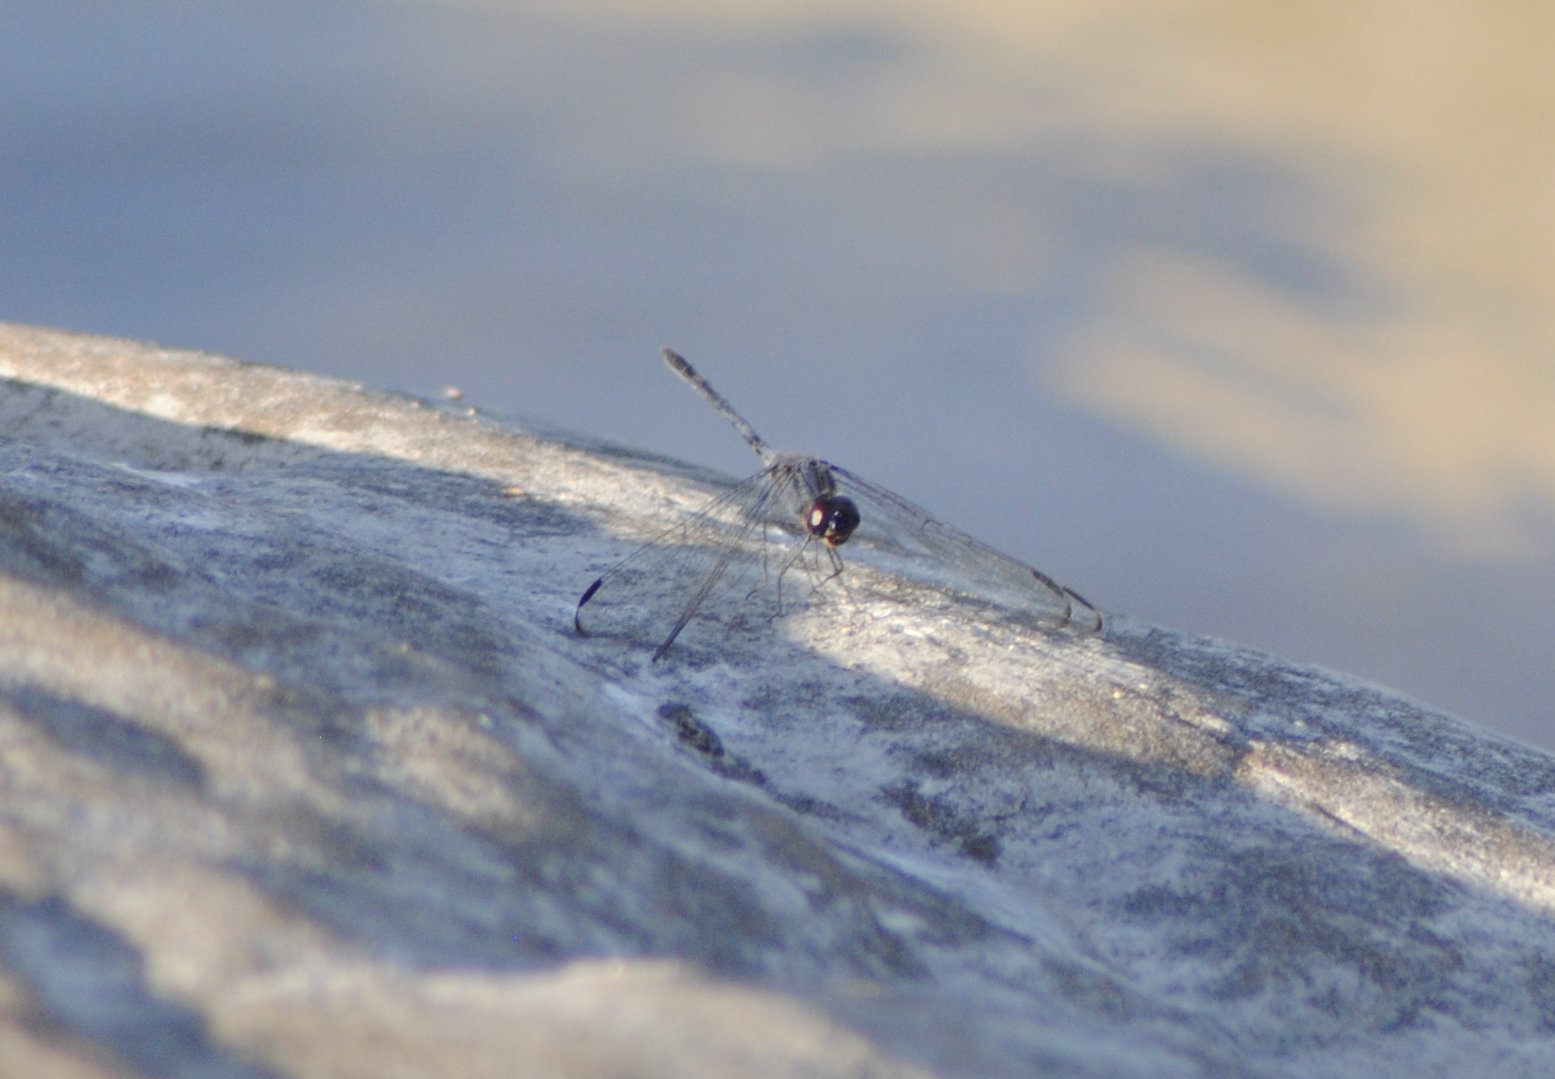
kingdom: Animalia
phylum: Arthropoda
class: Insecta
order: Odonata
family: Libellulidae
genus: Dythemis
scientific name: Dythemis nigrescens
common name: Black setwing
